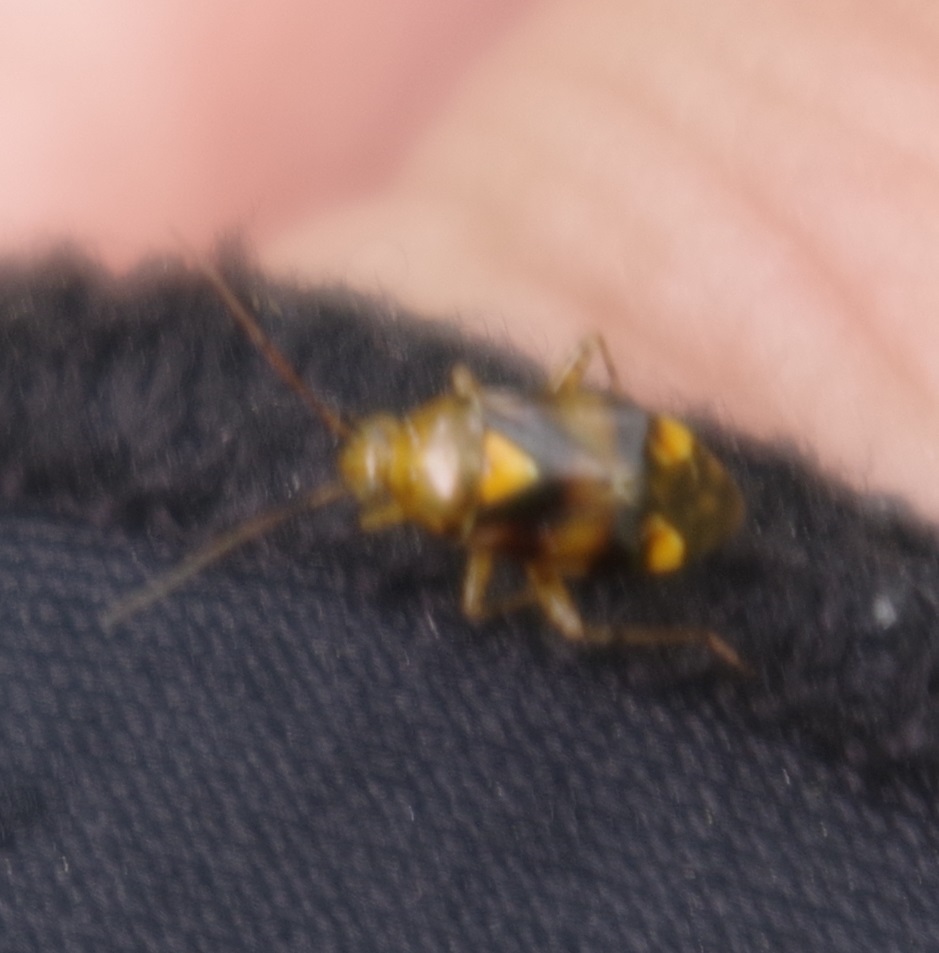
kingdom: Animalia
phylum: Arthropoda
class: Insecta
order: Hemiptera
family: Miridae
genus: Liocoris
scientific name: Liocoris tripustulatus
